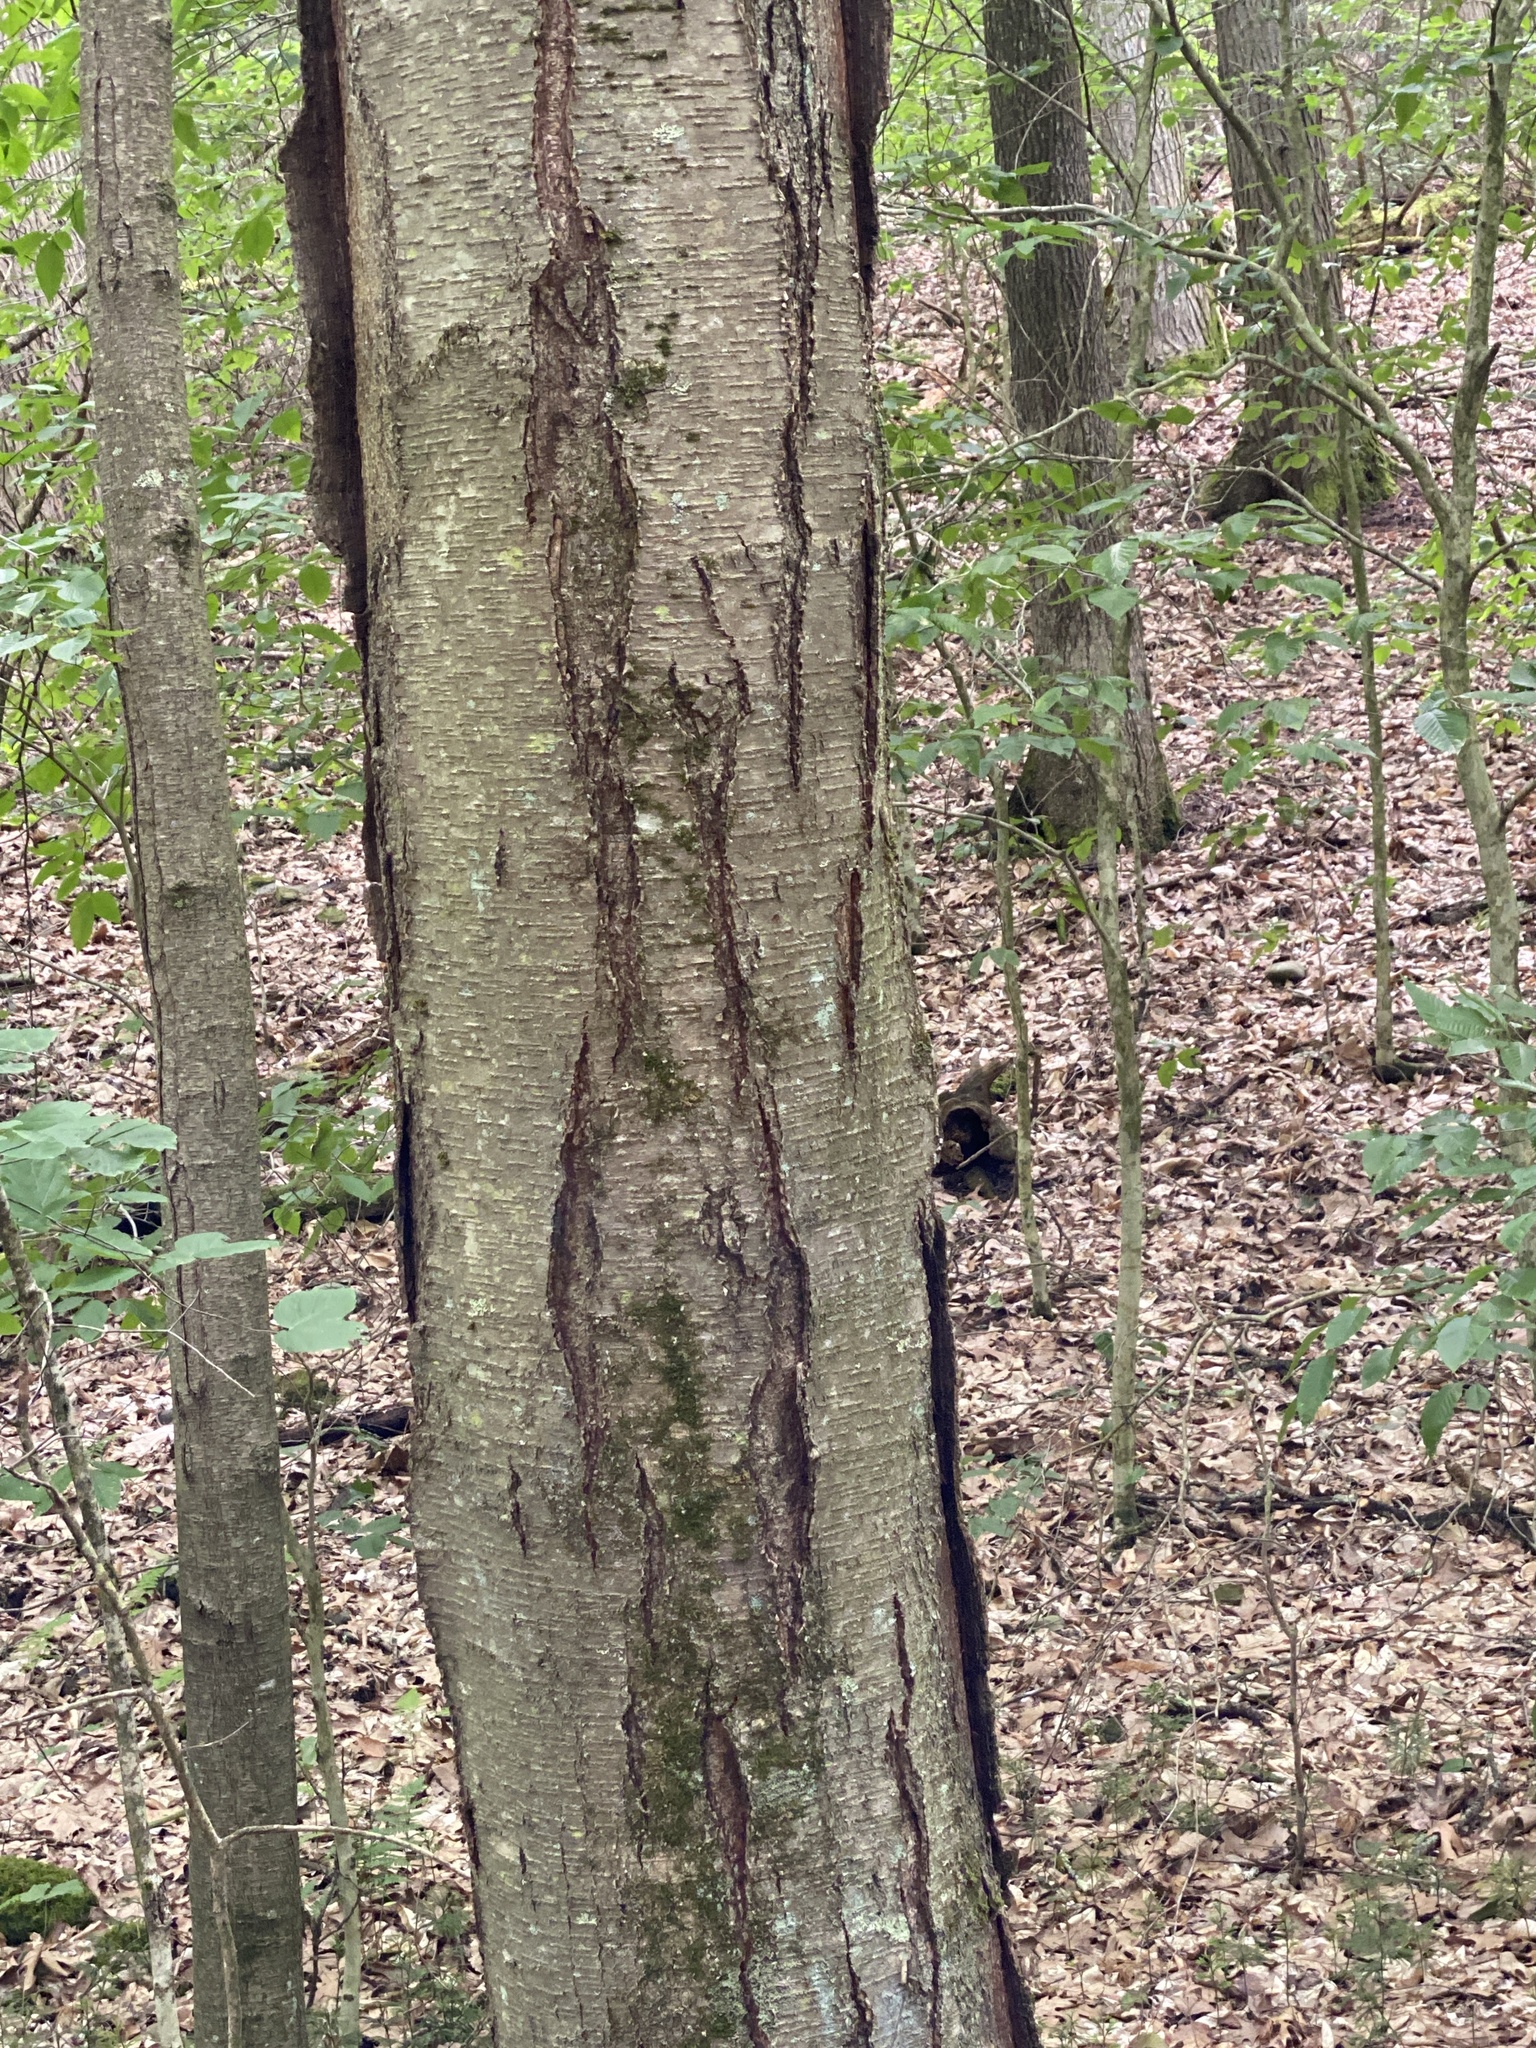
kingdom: Plantae
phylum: Tracheophyta
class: Magnoliopsida
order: Fagales
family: Betulaceae
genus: Betula
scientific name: Betula lenta
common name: Black birch
